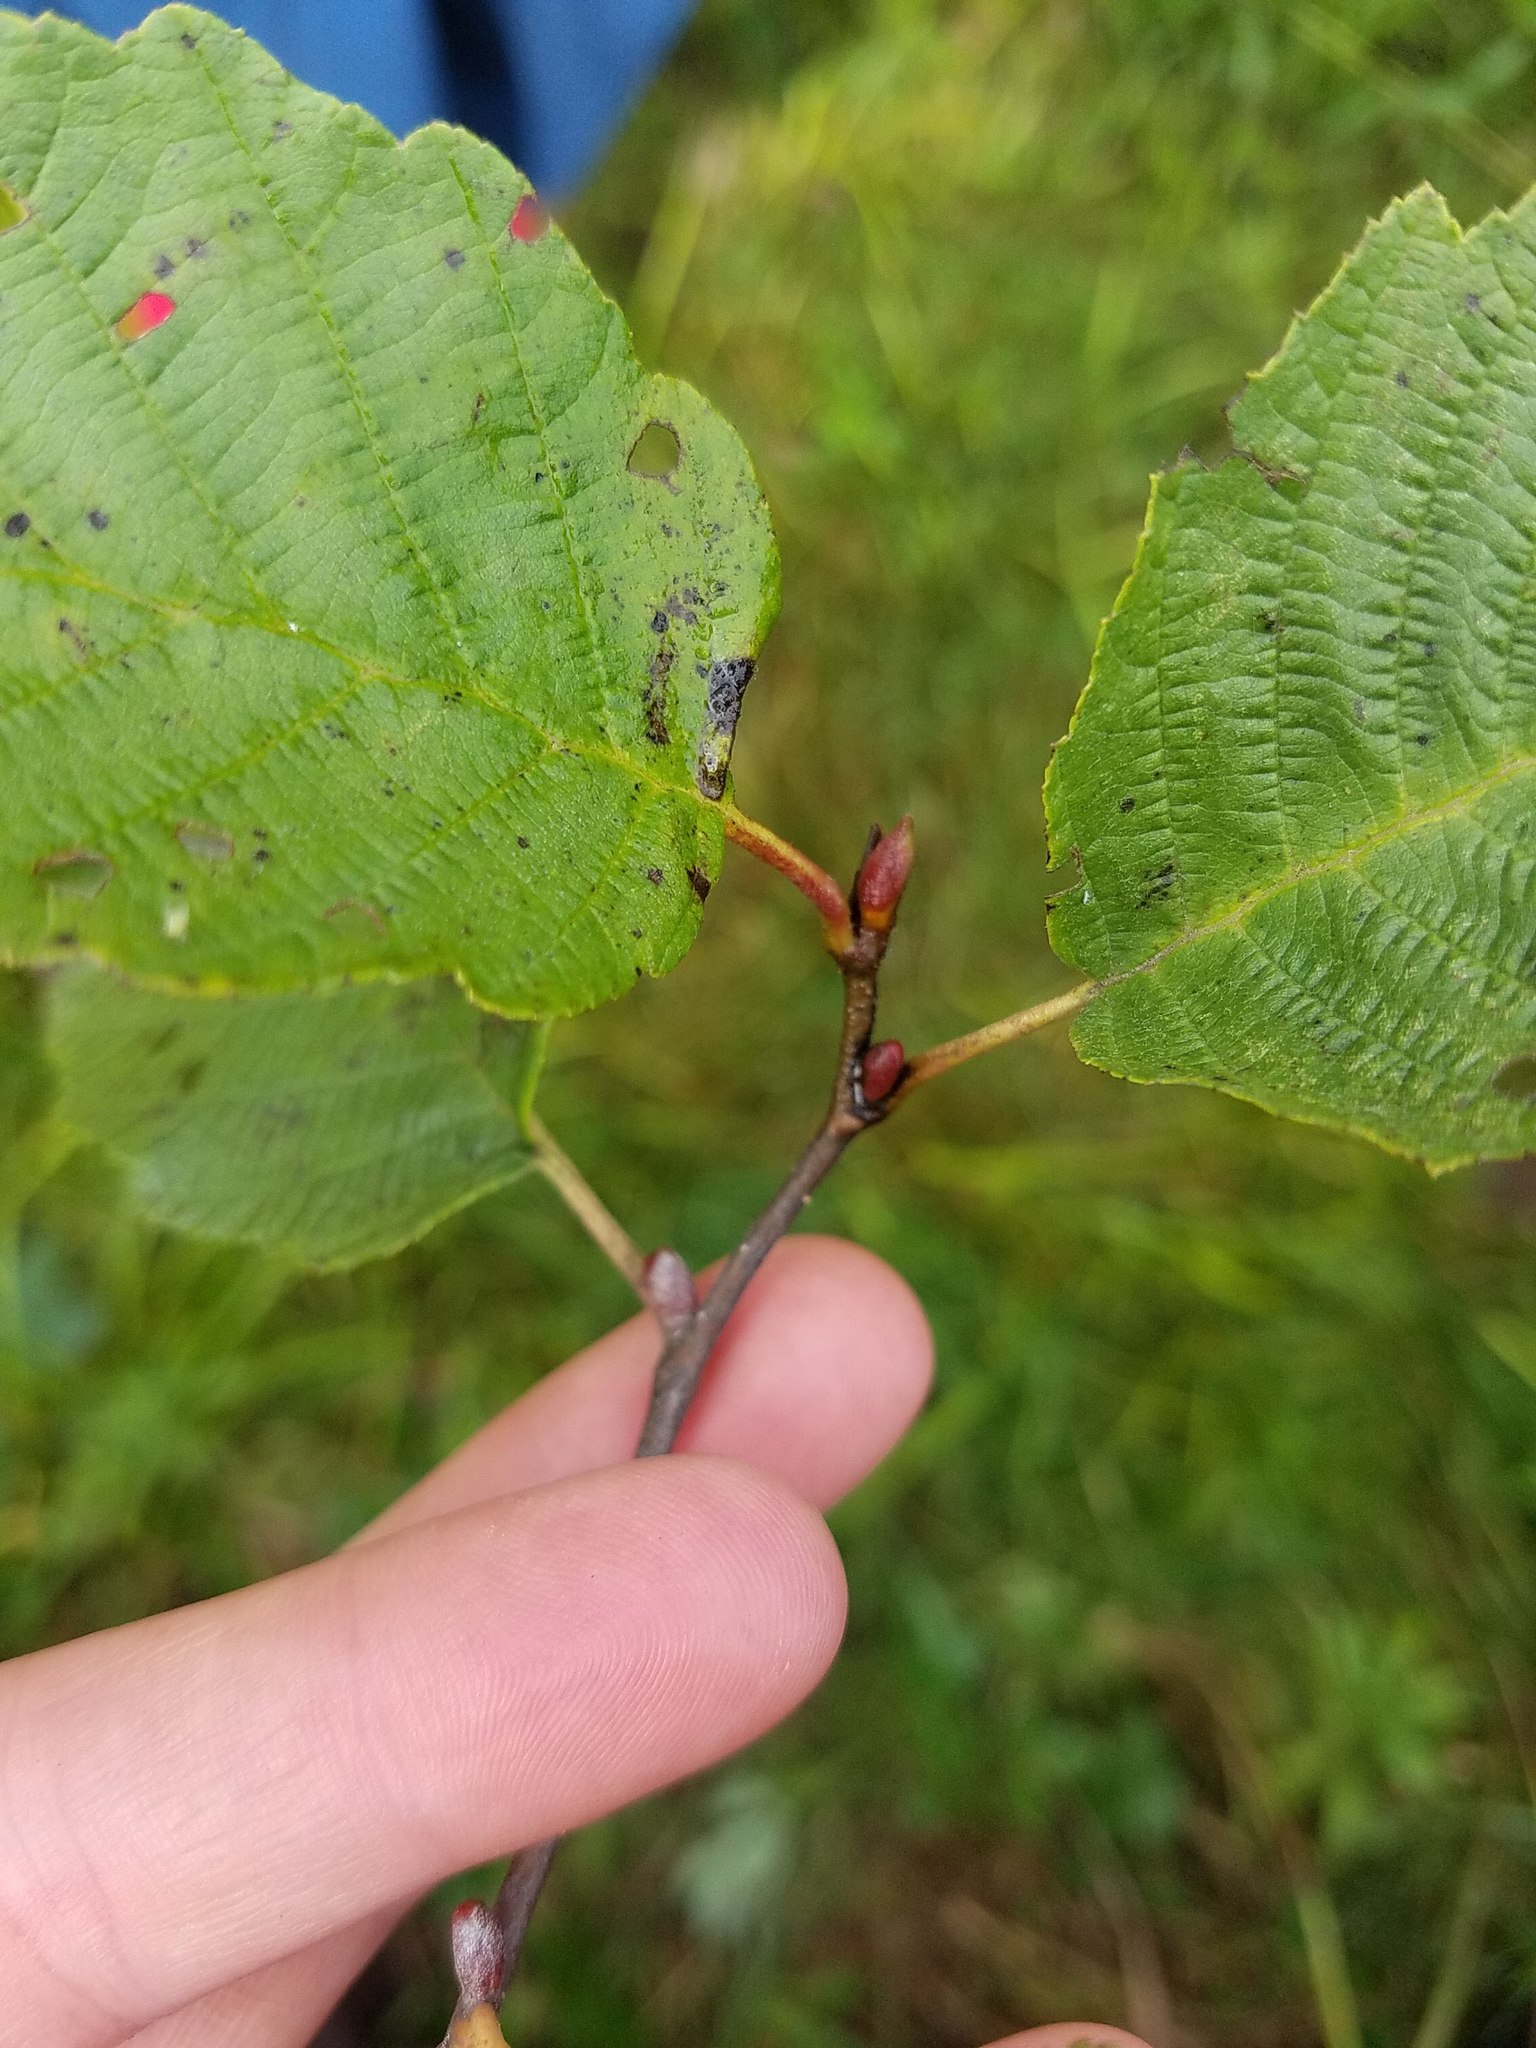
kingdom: Plantae
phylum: Tracheophyta
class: Magnoliopsida
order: Fagales
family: Betulaceae
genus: Alnus
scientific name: Alnus incana
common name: Grey alder
